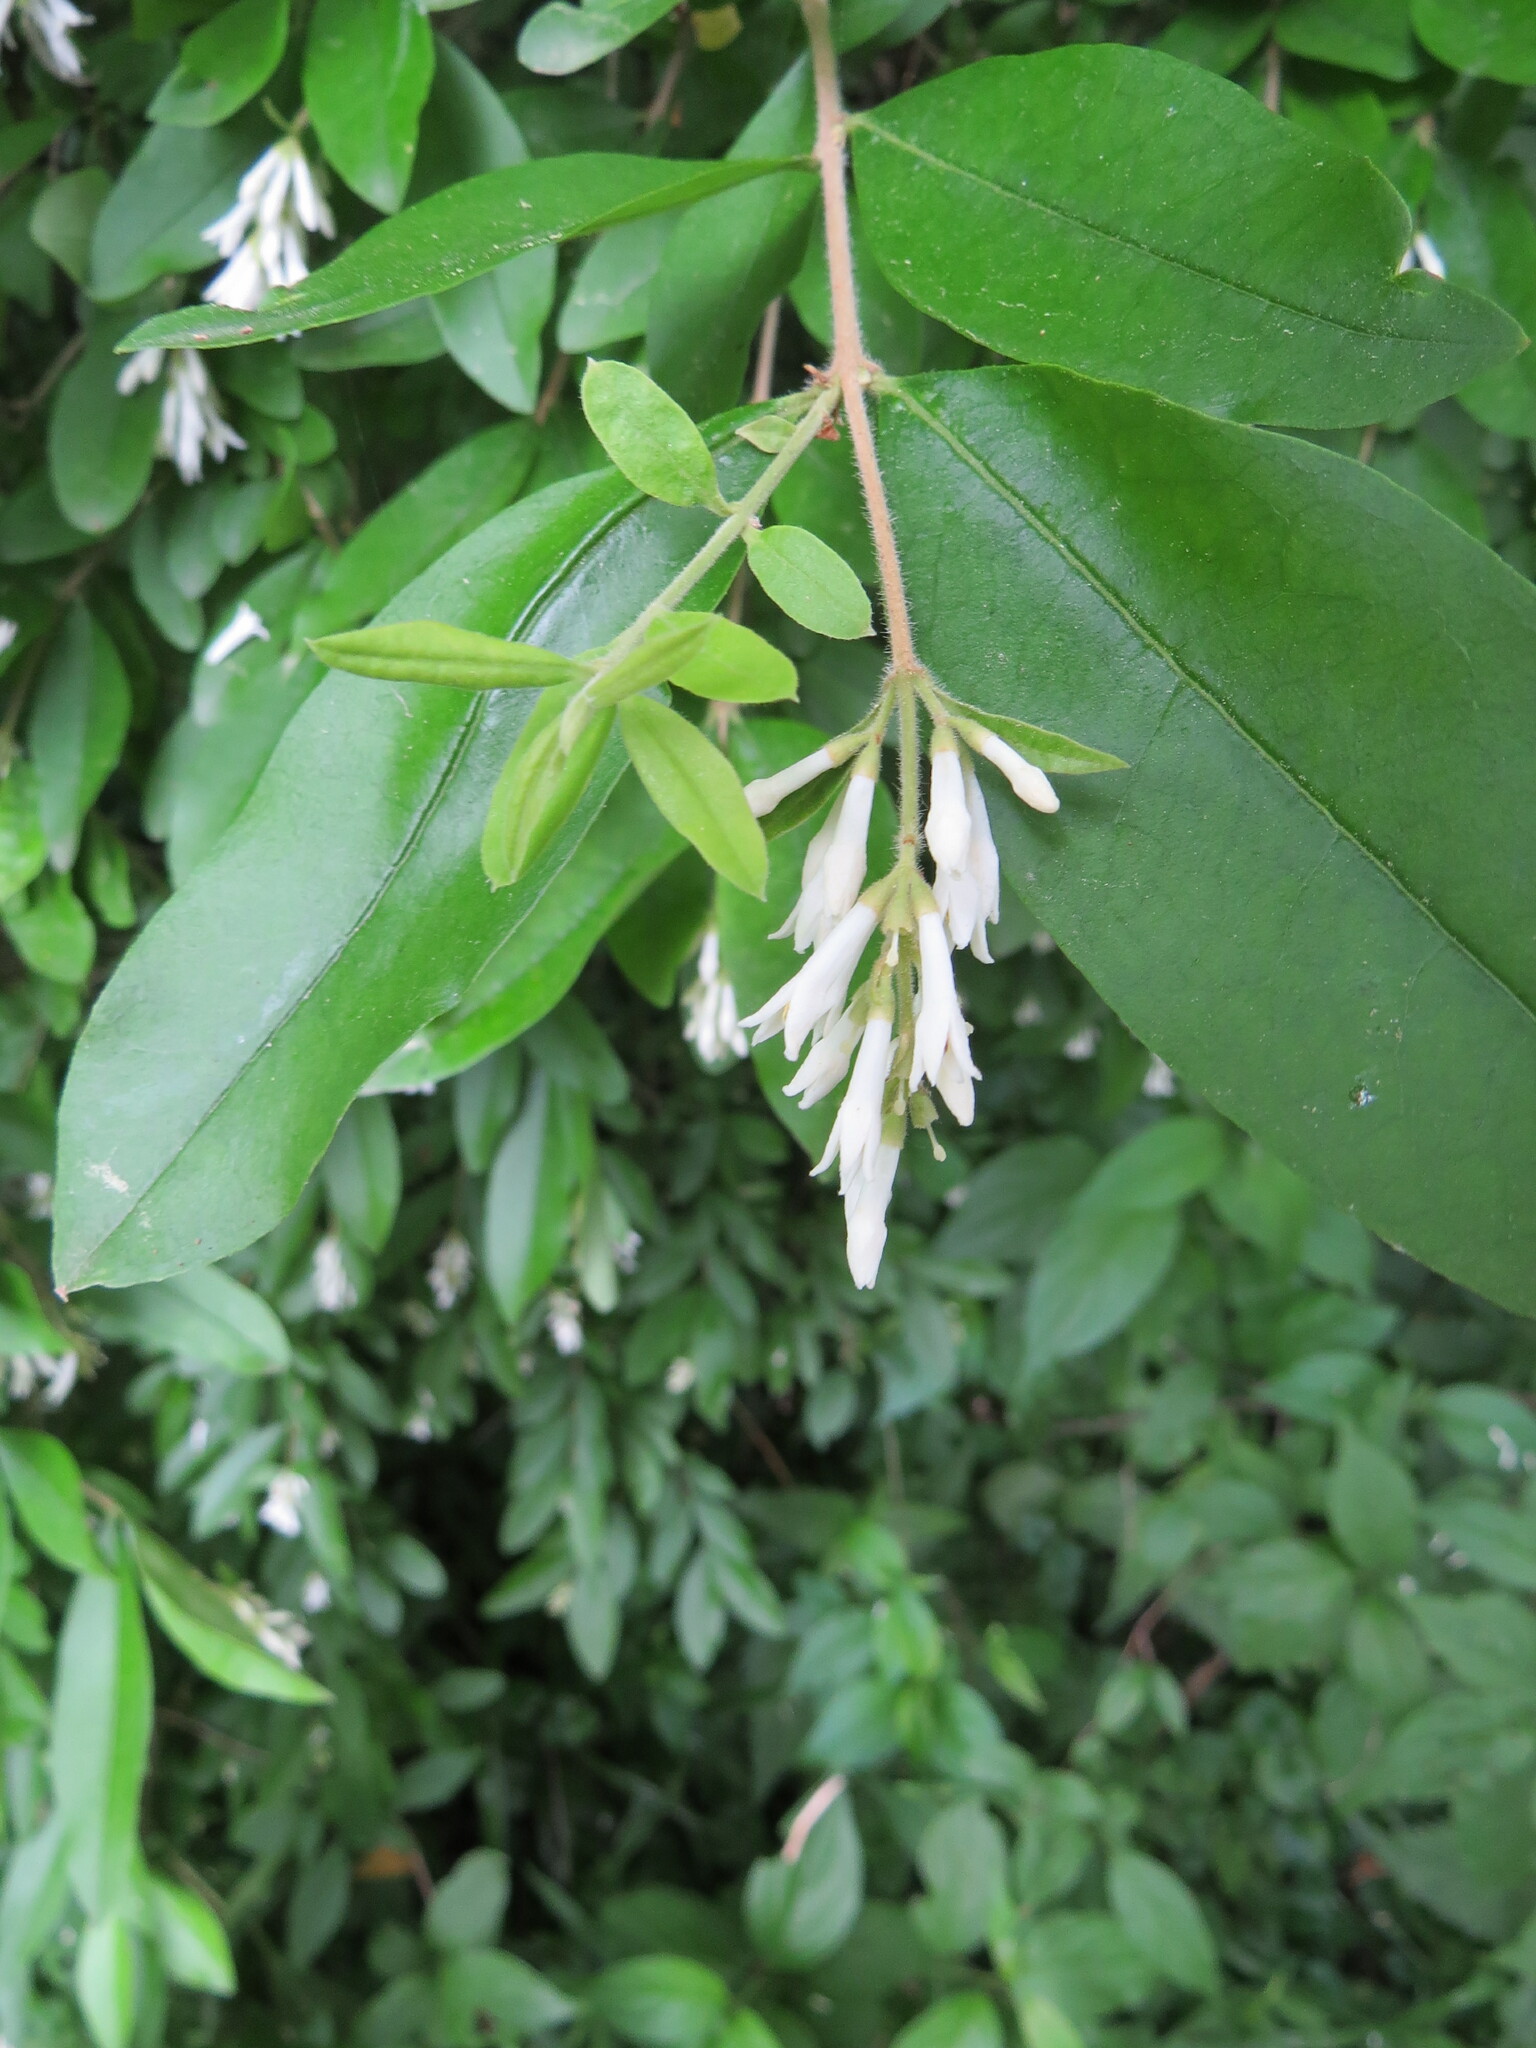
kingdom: Plantae
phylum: Tracheophyta
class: Magnoliopsida
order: Lamiales
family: Oleaceae
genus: Ligustrum
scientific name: Ligustrum obtusifolium
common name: Border privet
